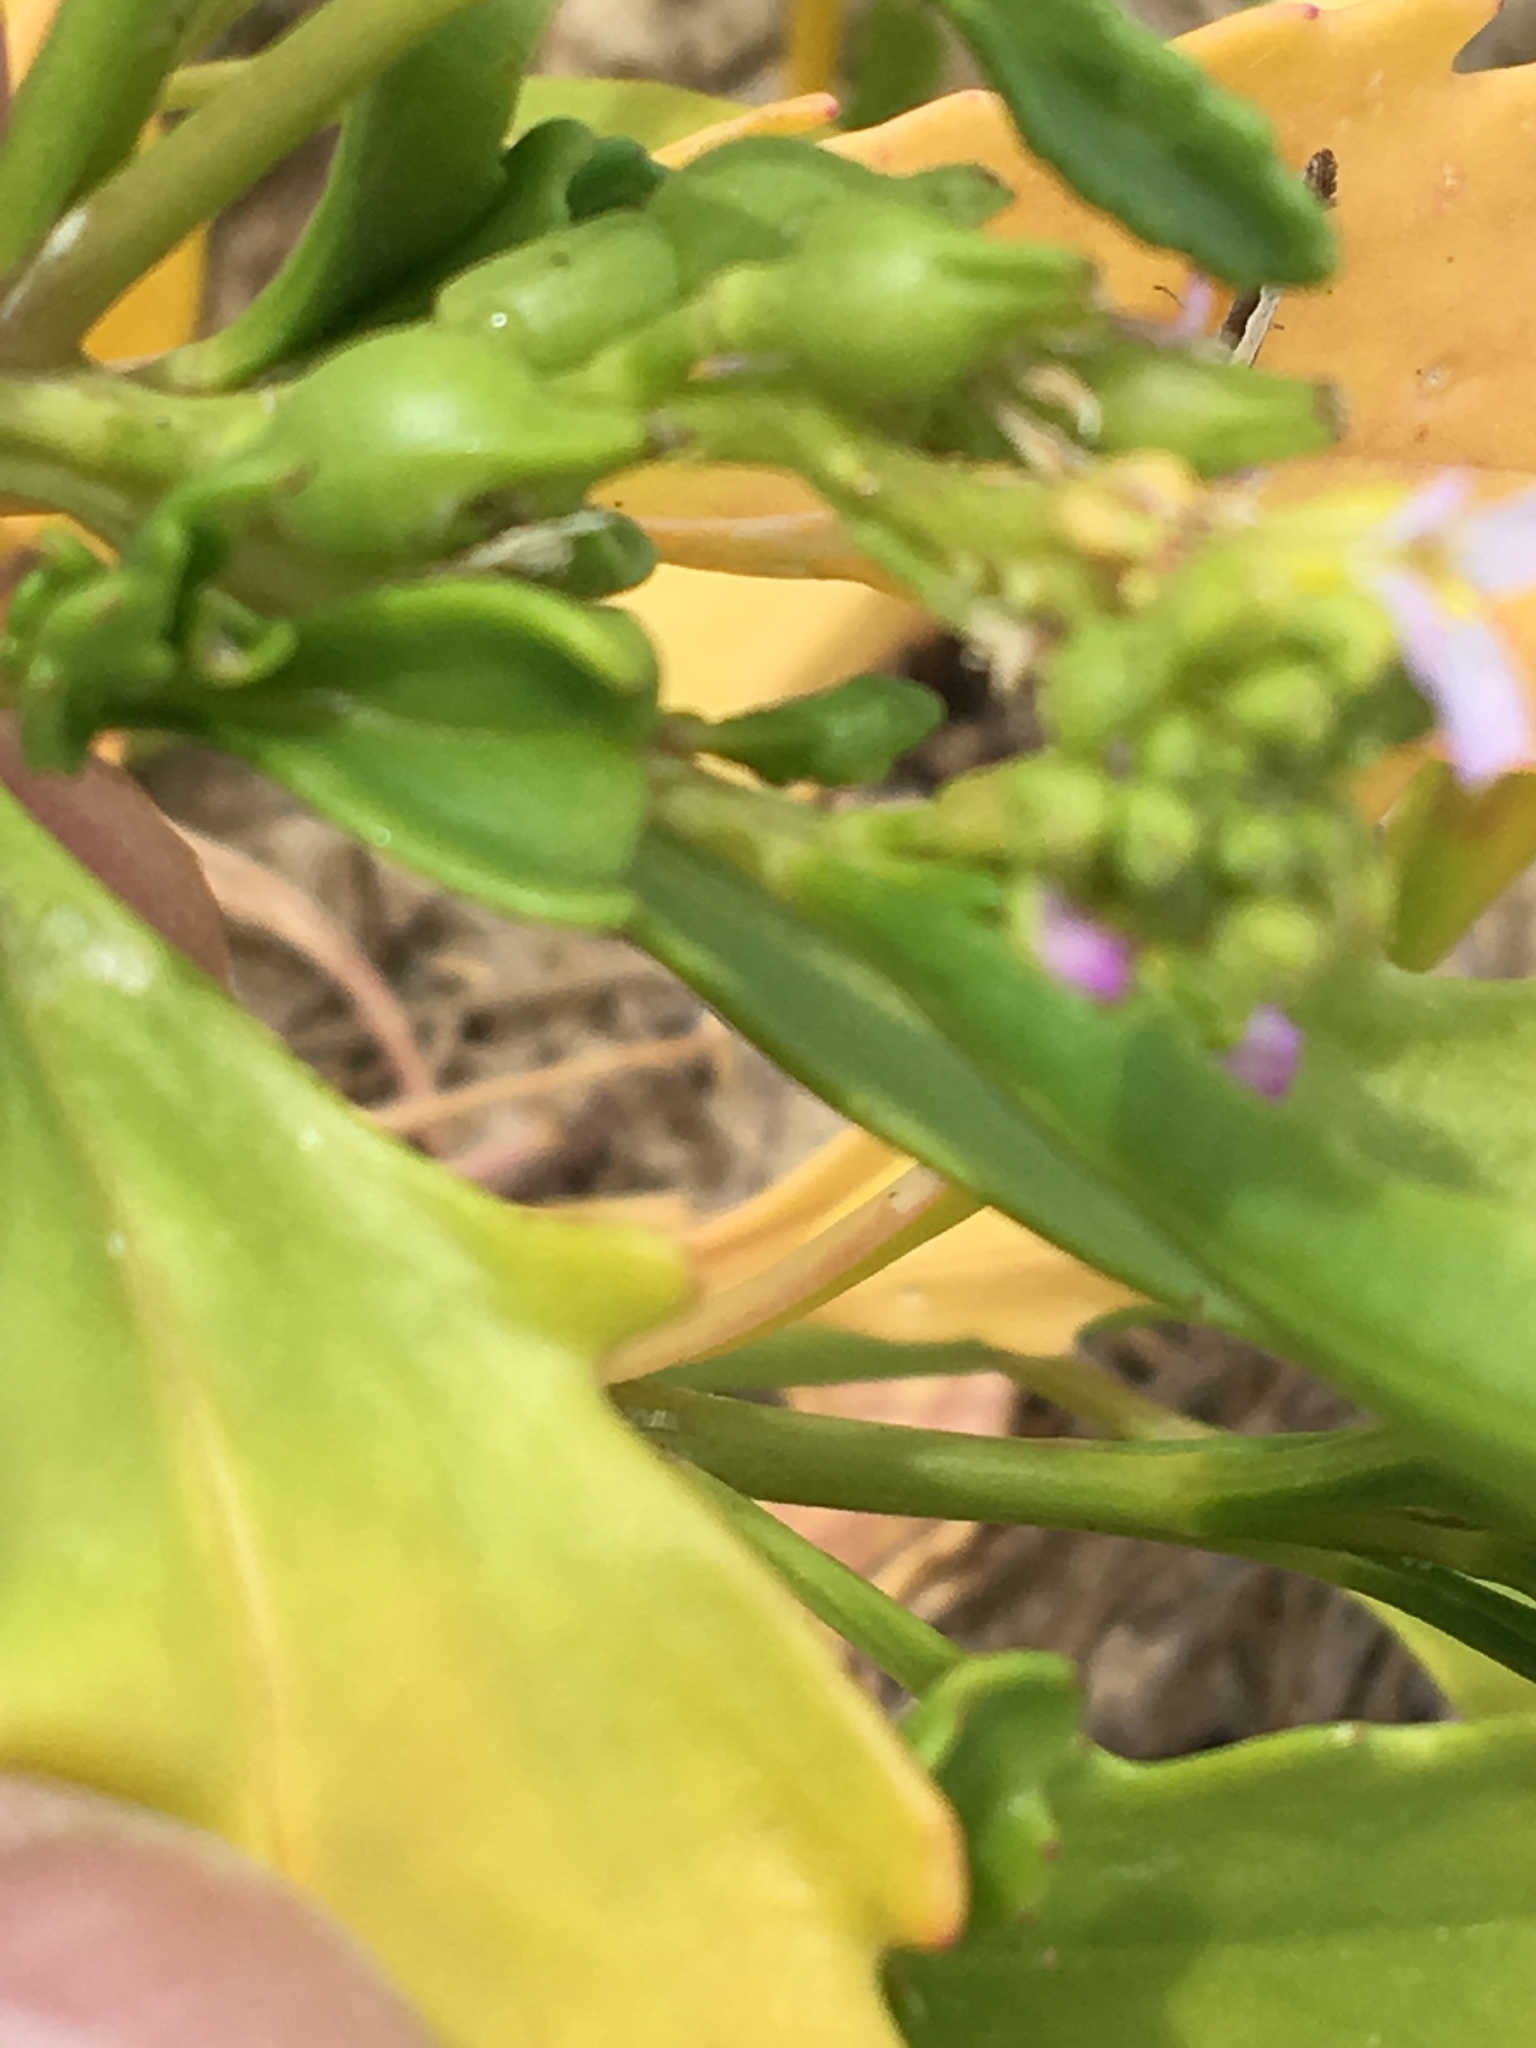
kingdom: Plantae
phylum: Tracheophyta
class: Magnoliopsida
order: Brassicales
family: Brassicaceae
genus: Cakile
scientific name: Cakile edentula
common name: American sea rocket
